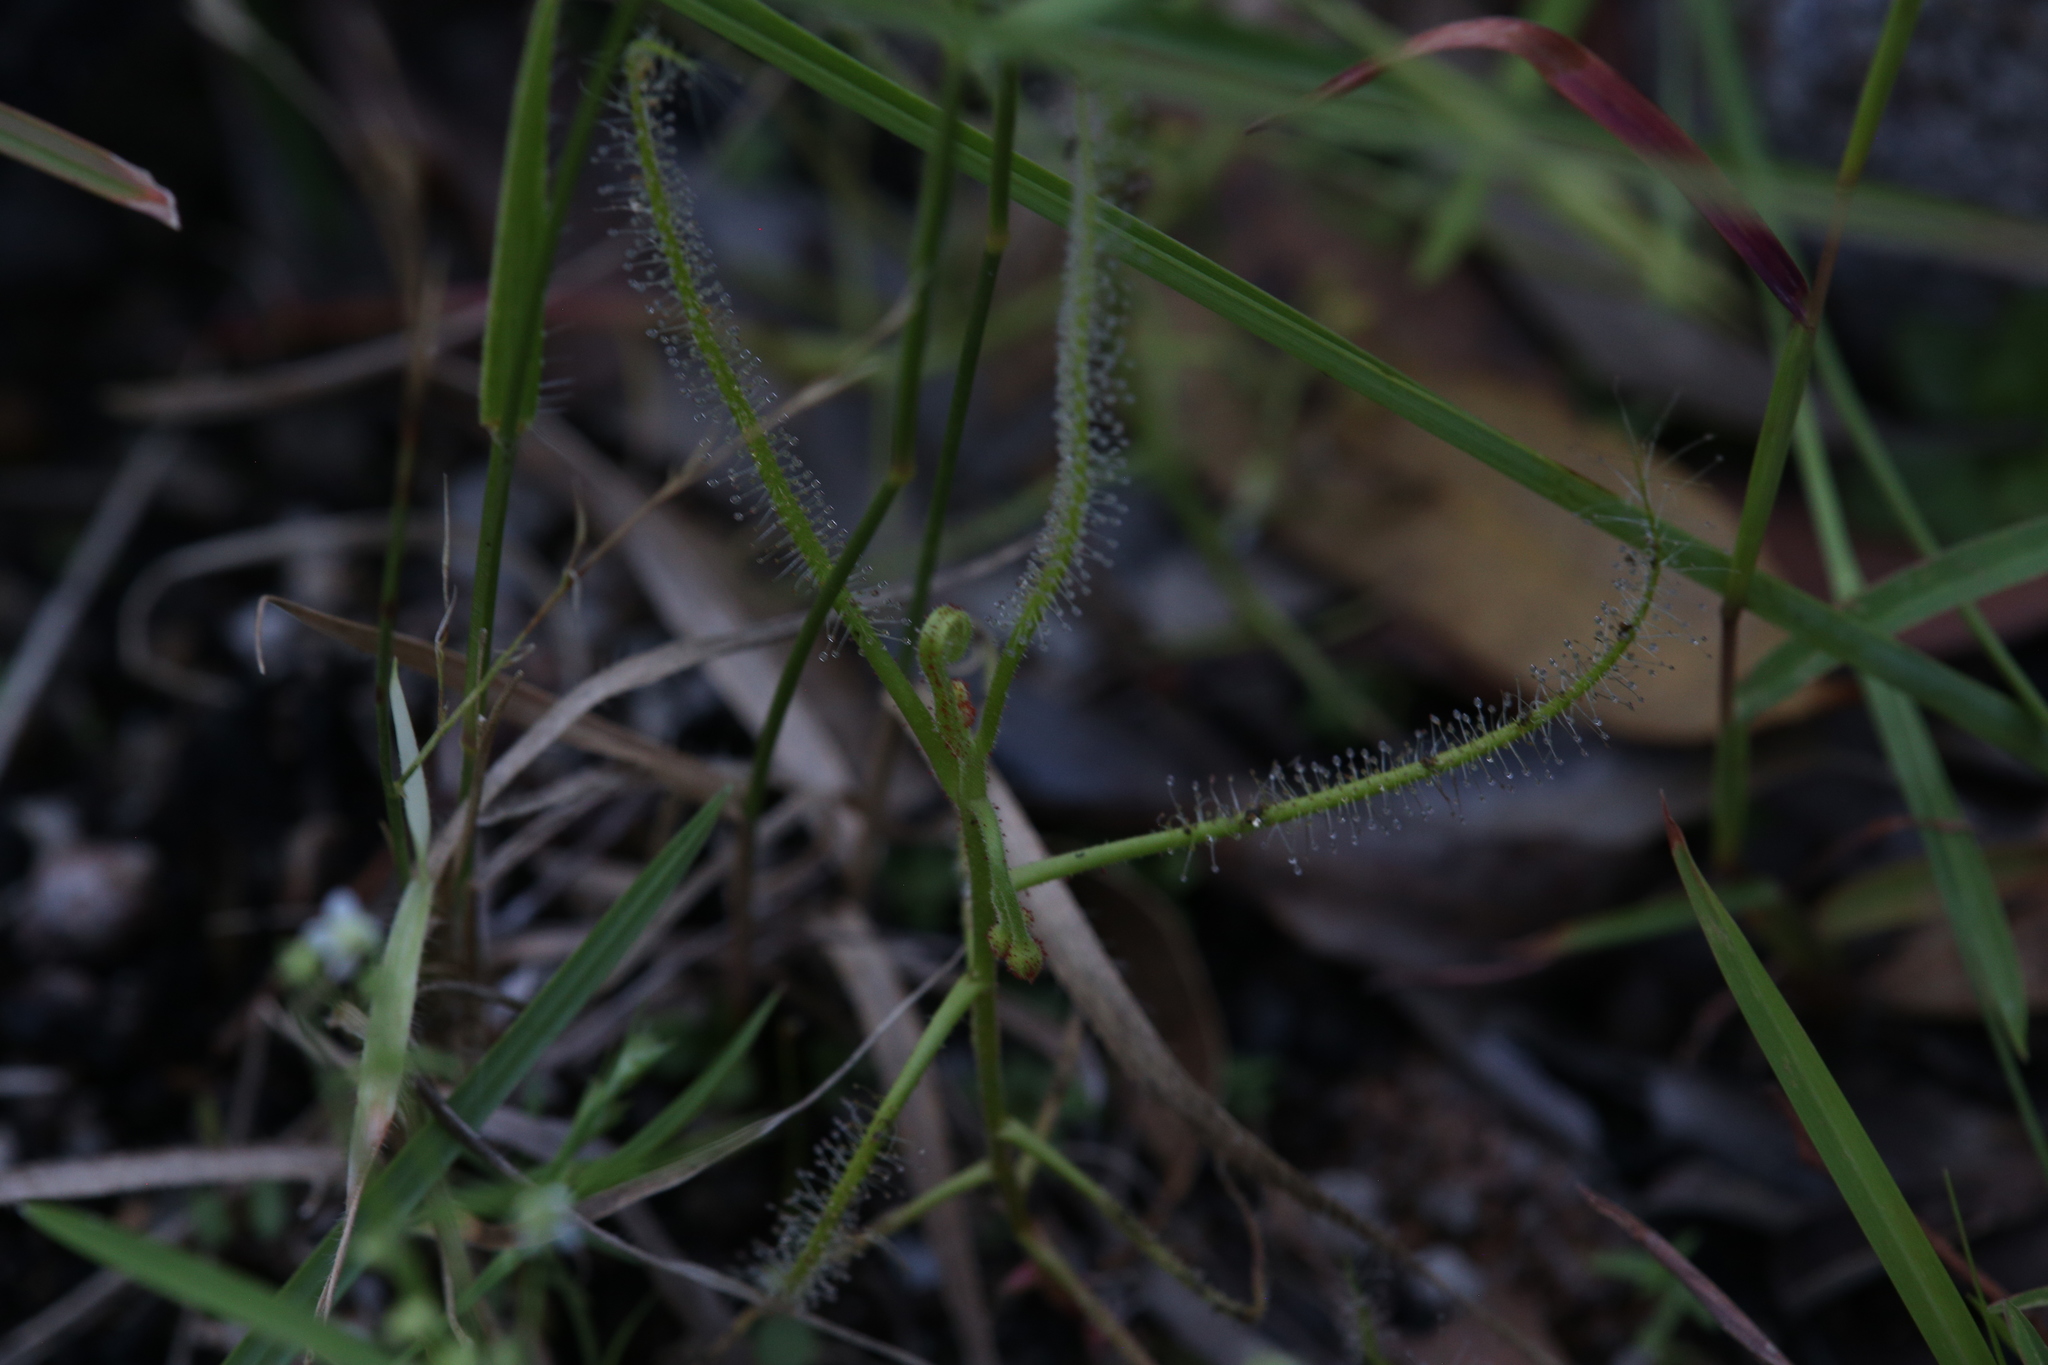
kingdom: Plantae
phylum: Tracheophyta
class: Magnoliopsida
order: Caryophyllales
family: Droseraceae
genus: Drosera
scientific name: Drosera indica
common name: Indian sundew
